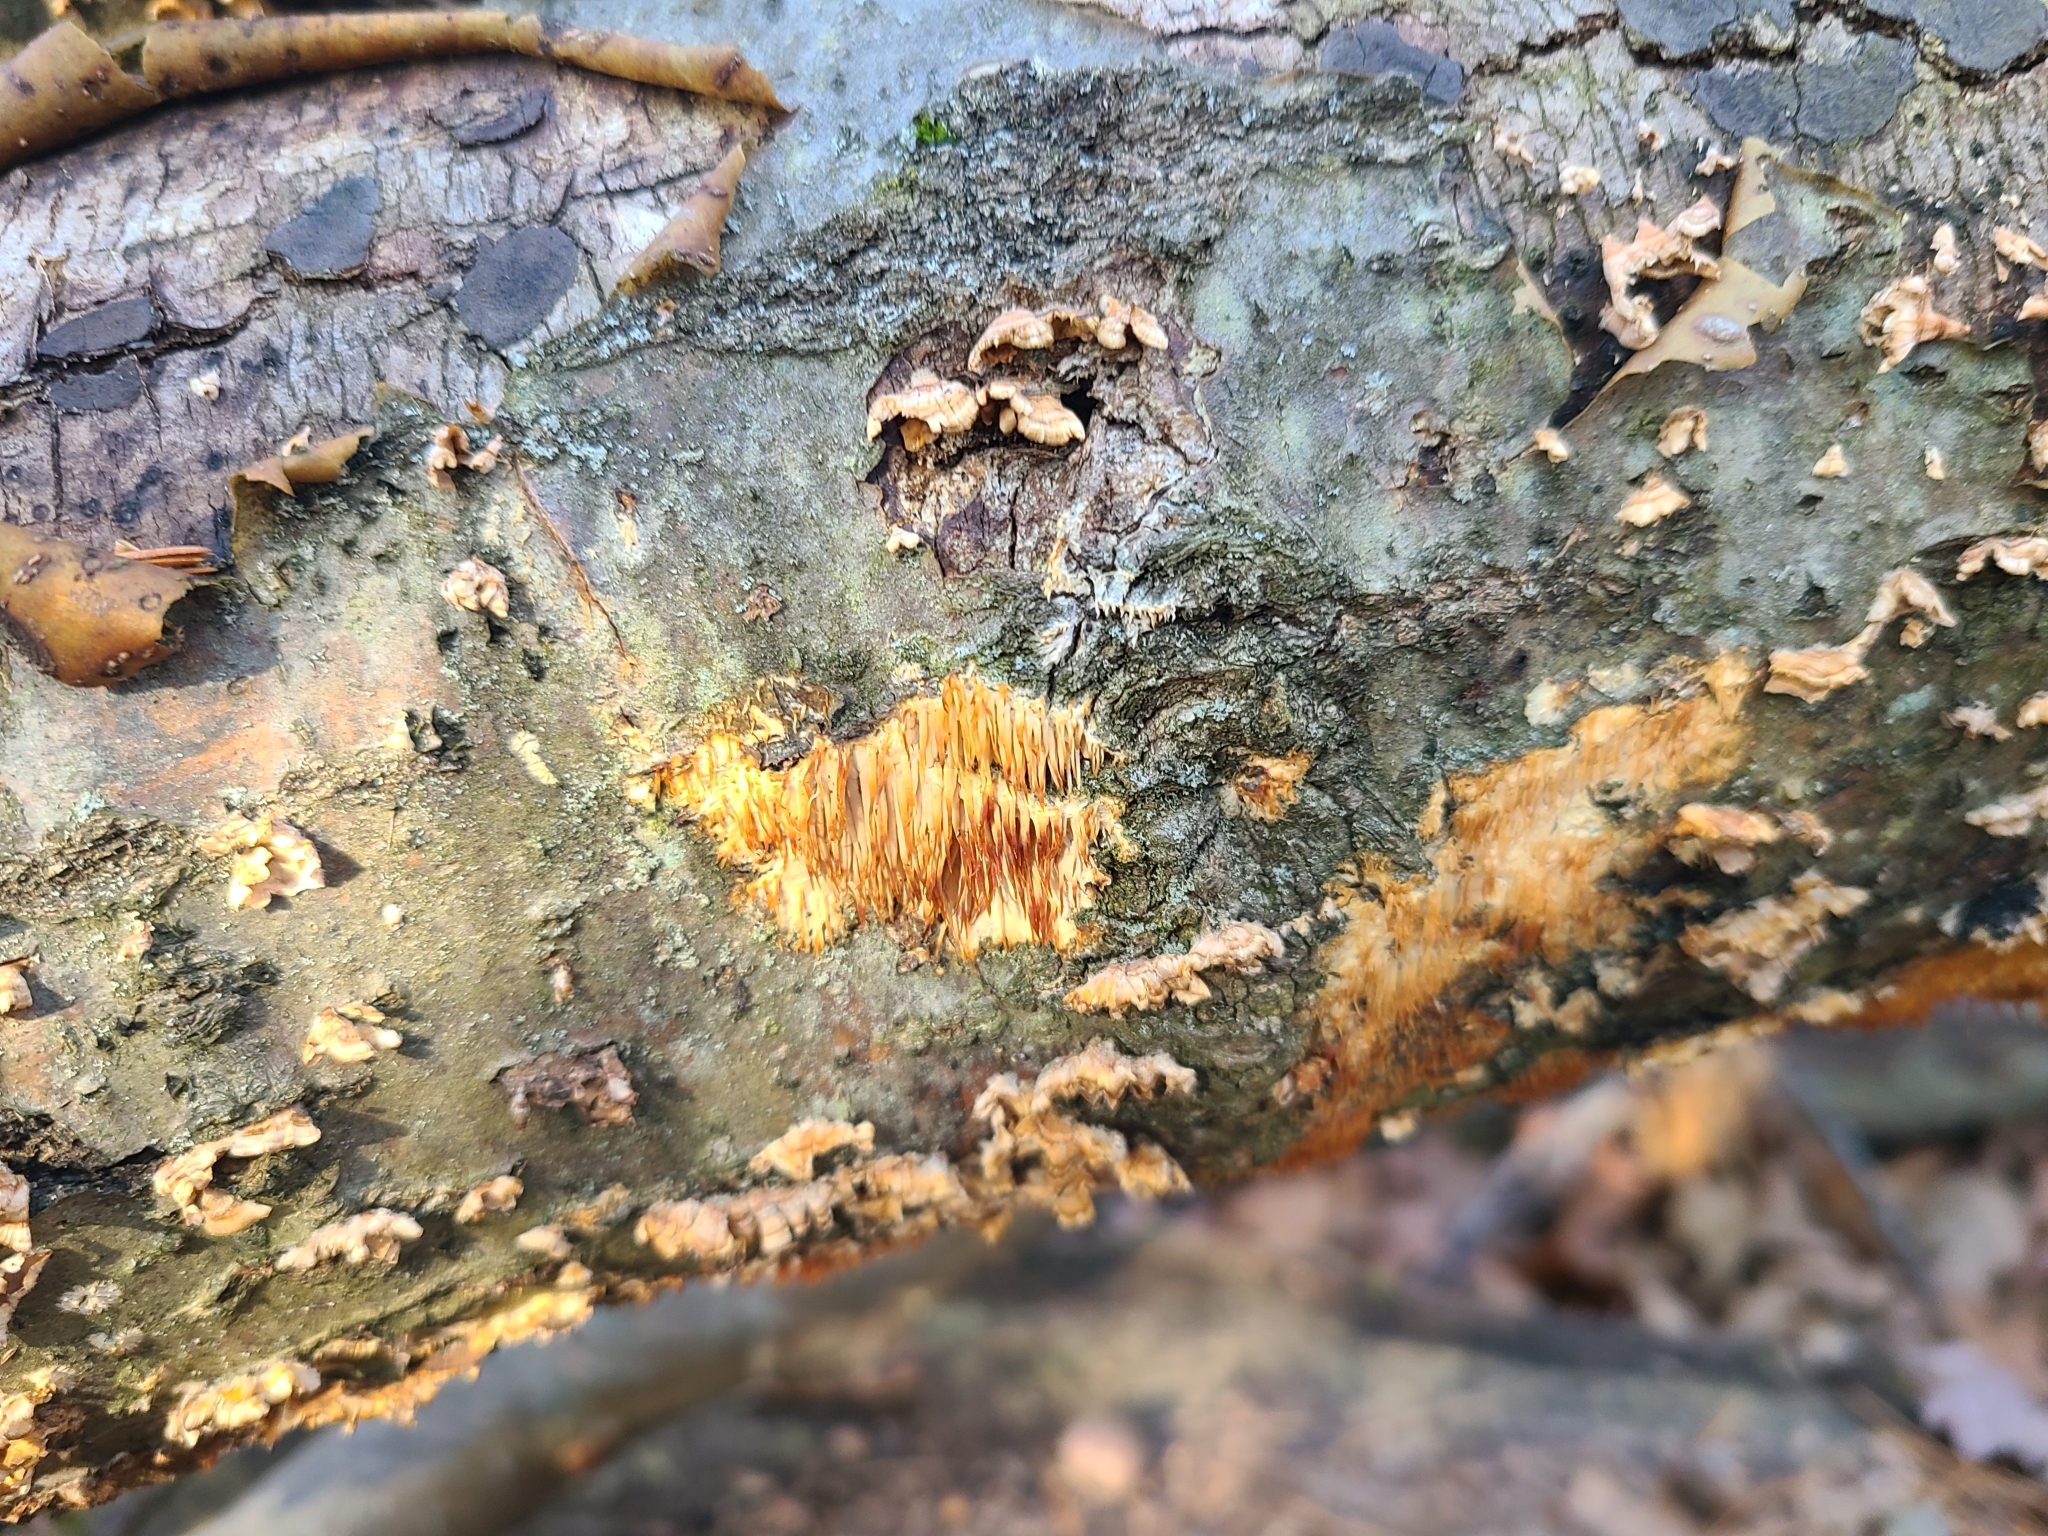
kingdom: Fungi
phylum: Basidiomycota
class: Agaricomycetes
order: Agaricales
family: Radulomycetaceae
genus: Radulomyces
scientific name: Radulomyces copelandii
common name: Asian beauty
